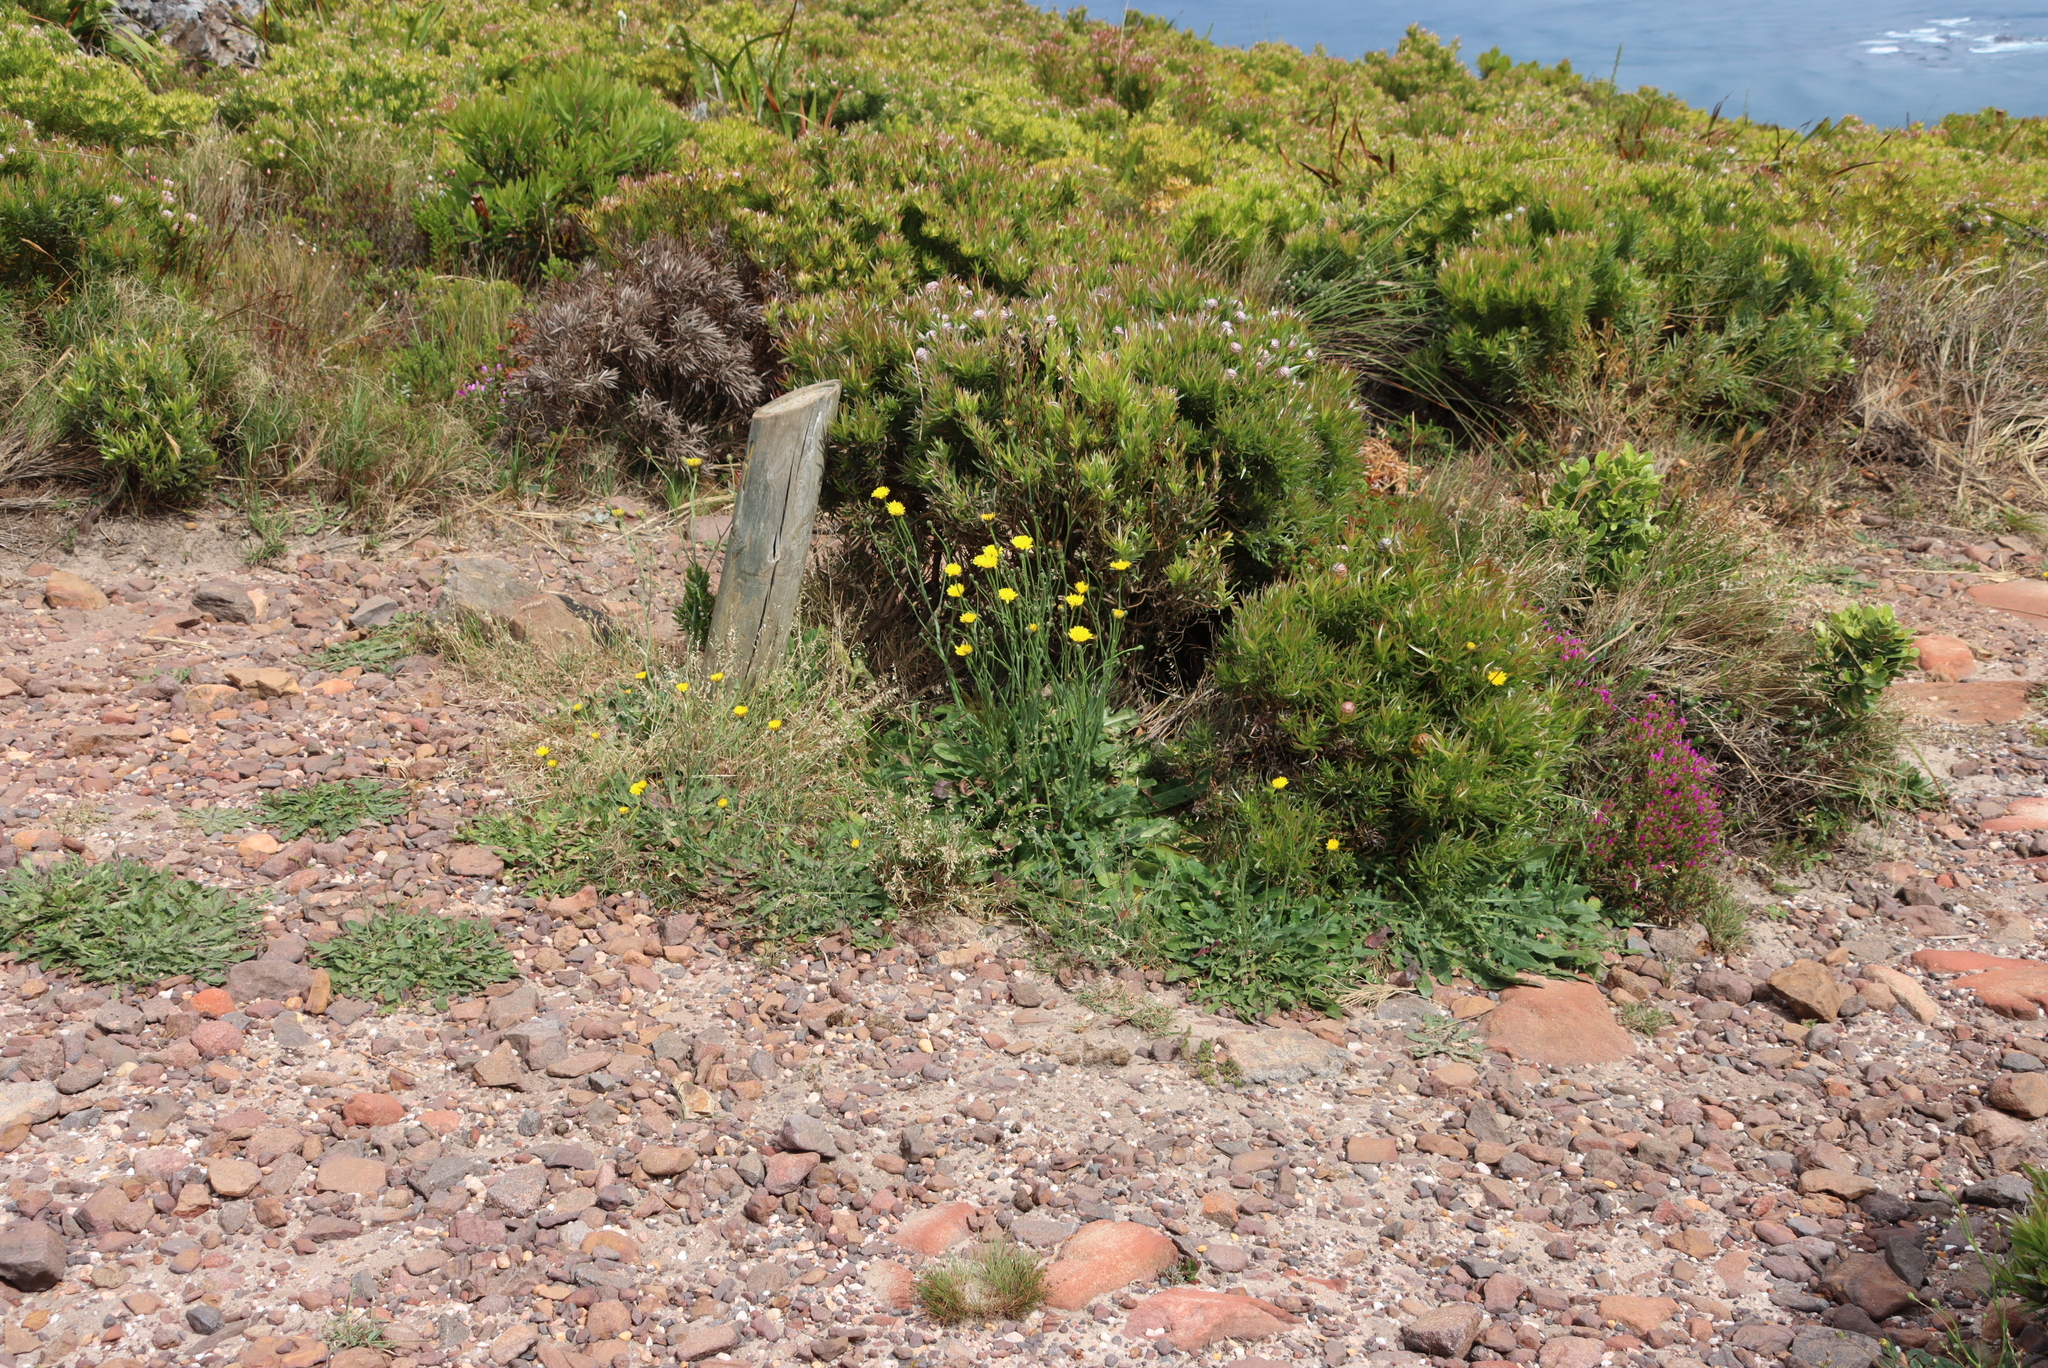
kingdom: Plantae
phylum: Tracheophyta
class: Magnoliopsida
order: Asterales
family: Asteraceae
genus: Hypochaeris
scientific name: Hypochaeris radicata
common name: Flatweed
